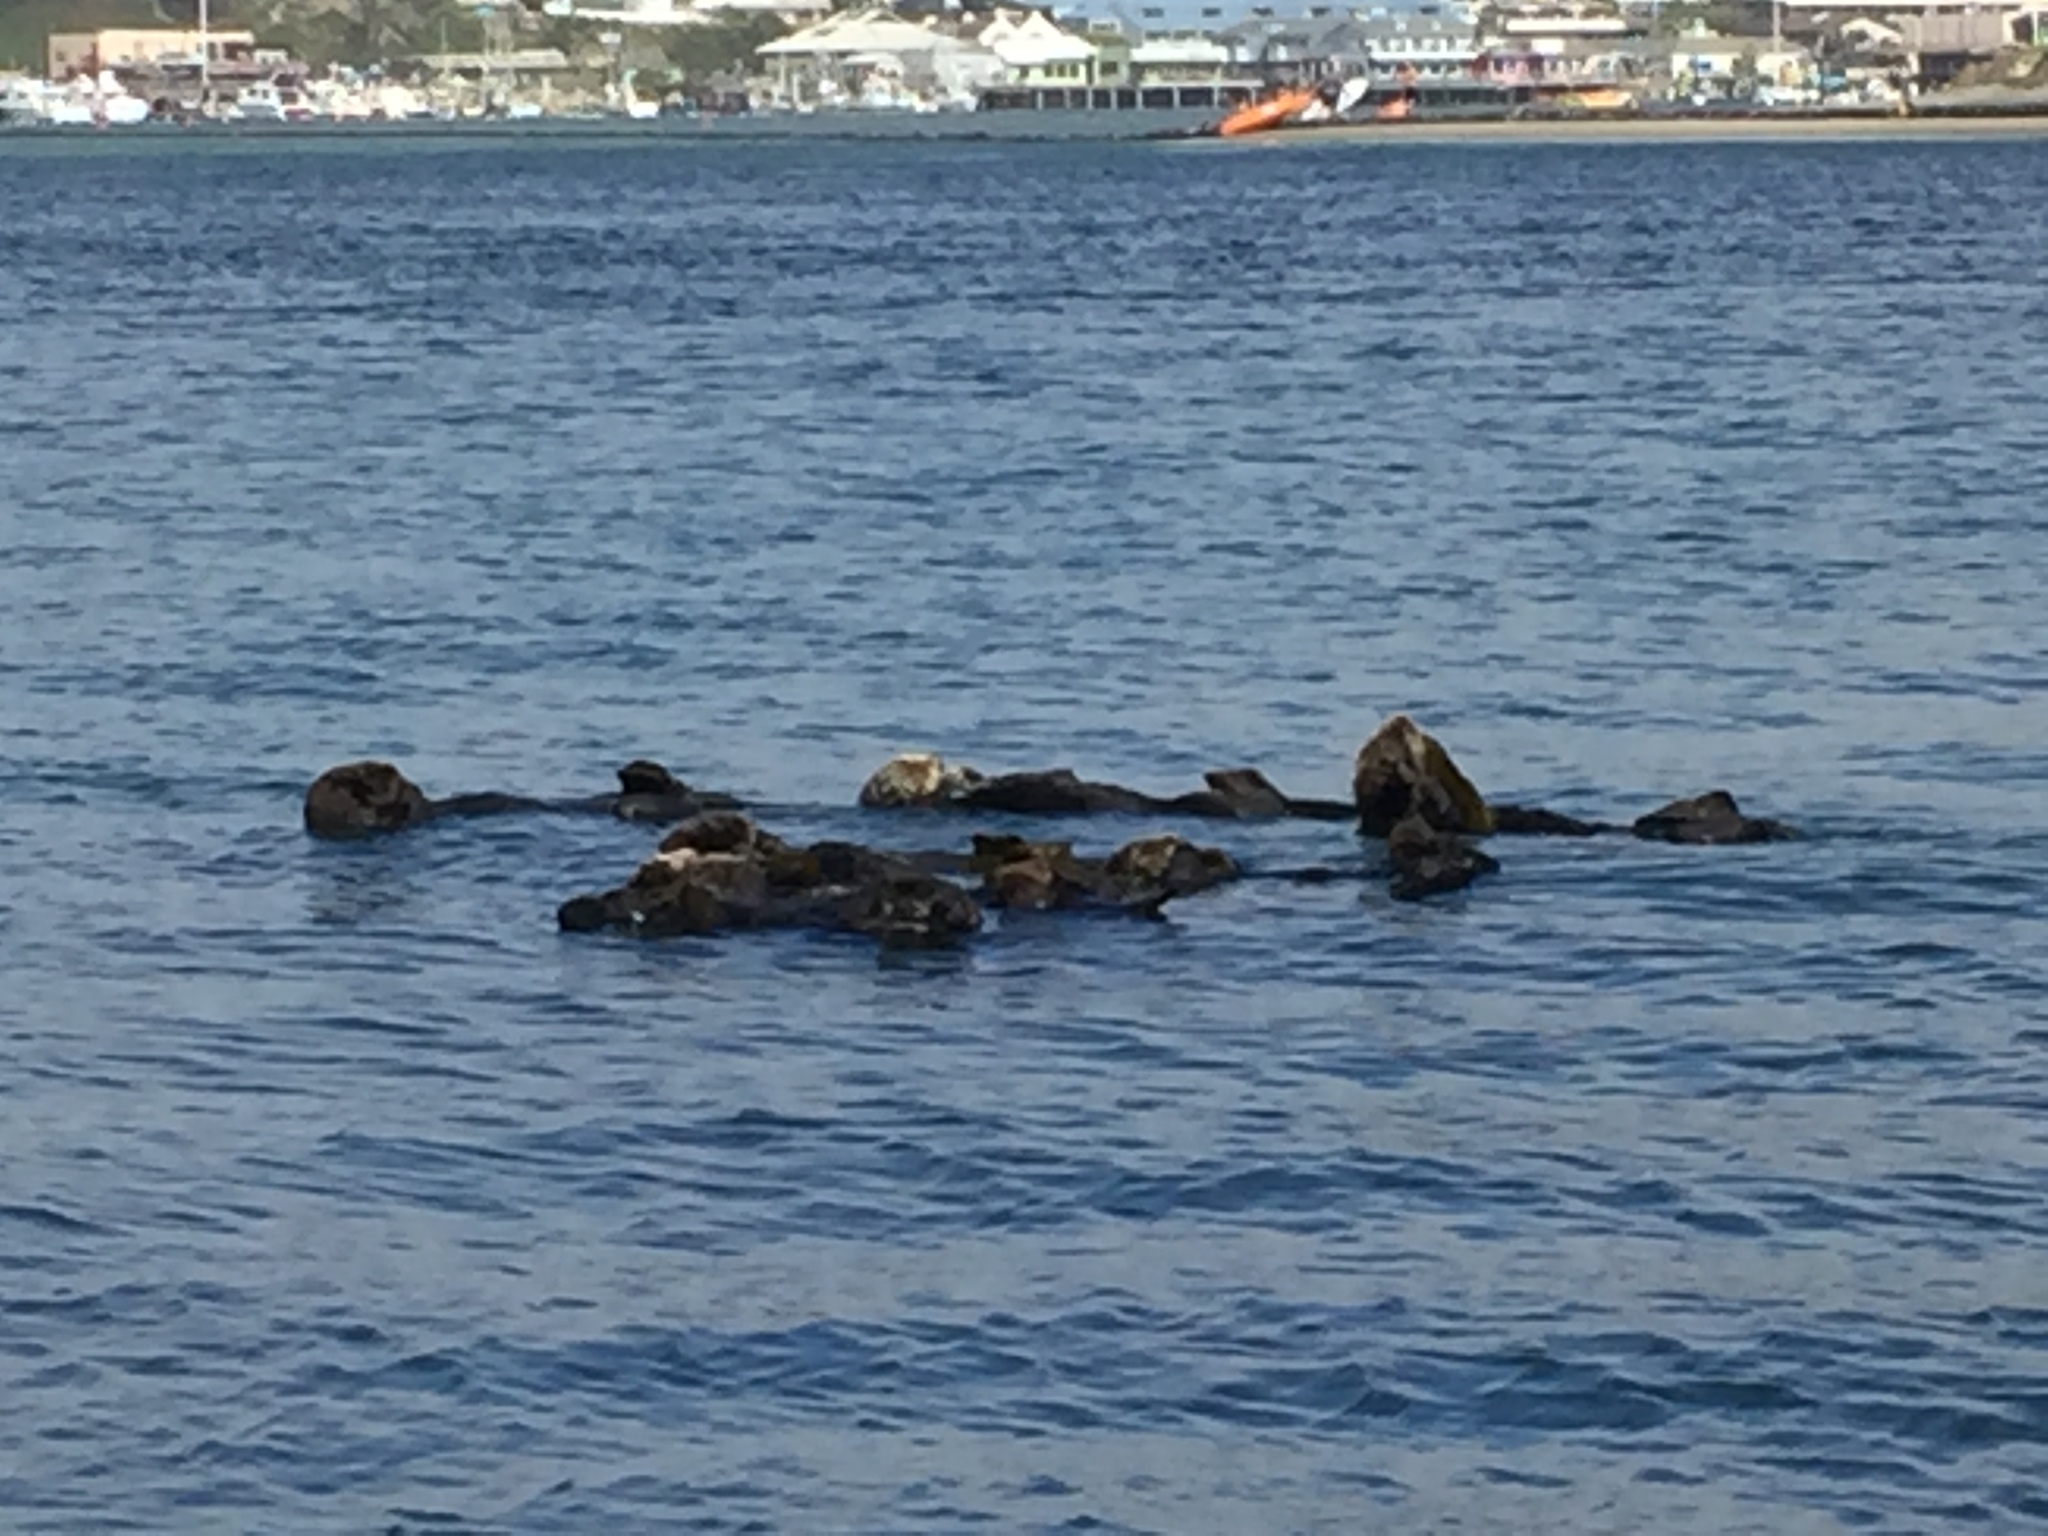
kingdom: Animalia
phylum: Chordata
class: Mammalia
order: Carnivora
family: Mustelidae
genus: Enhydra
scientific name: Enhydra lutris
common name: Sea otter
